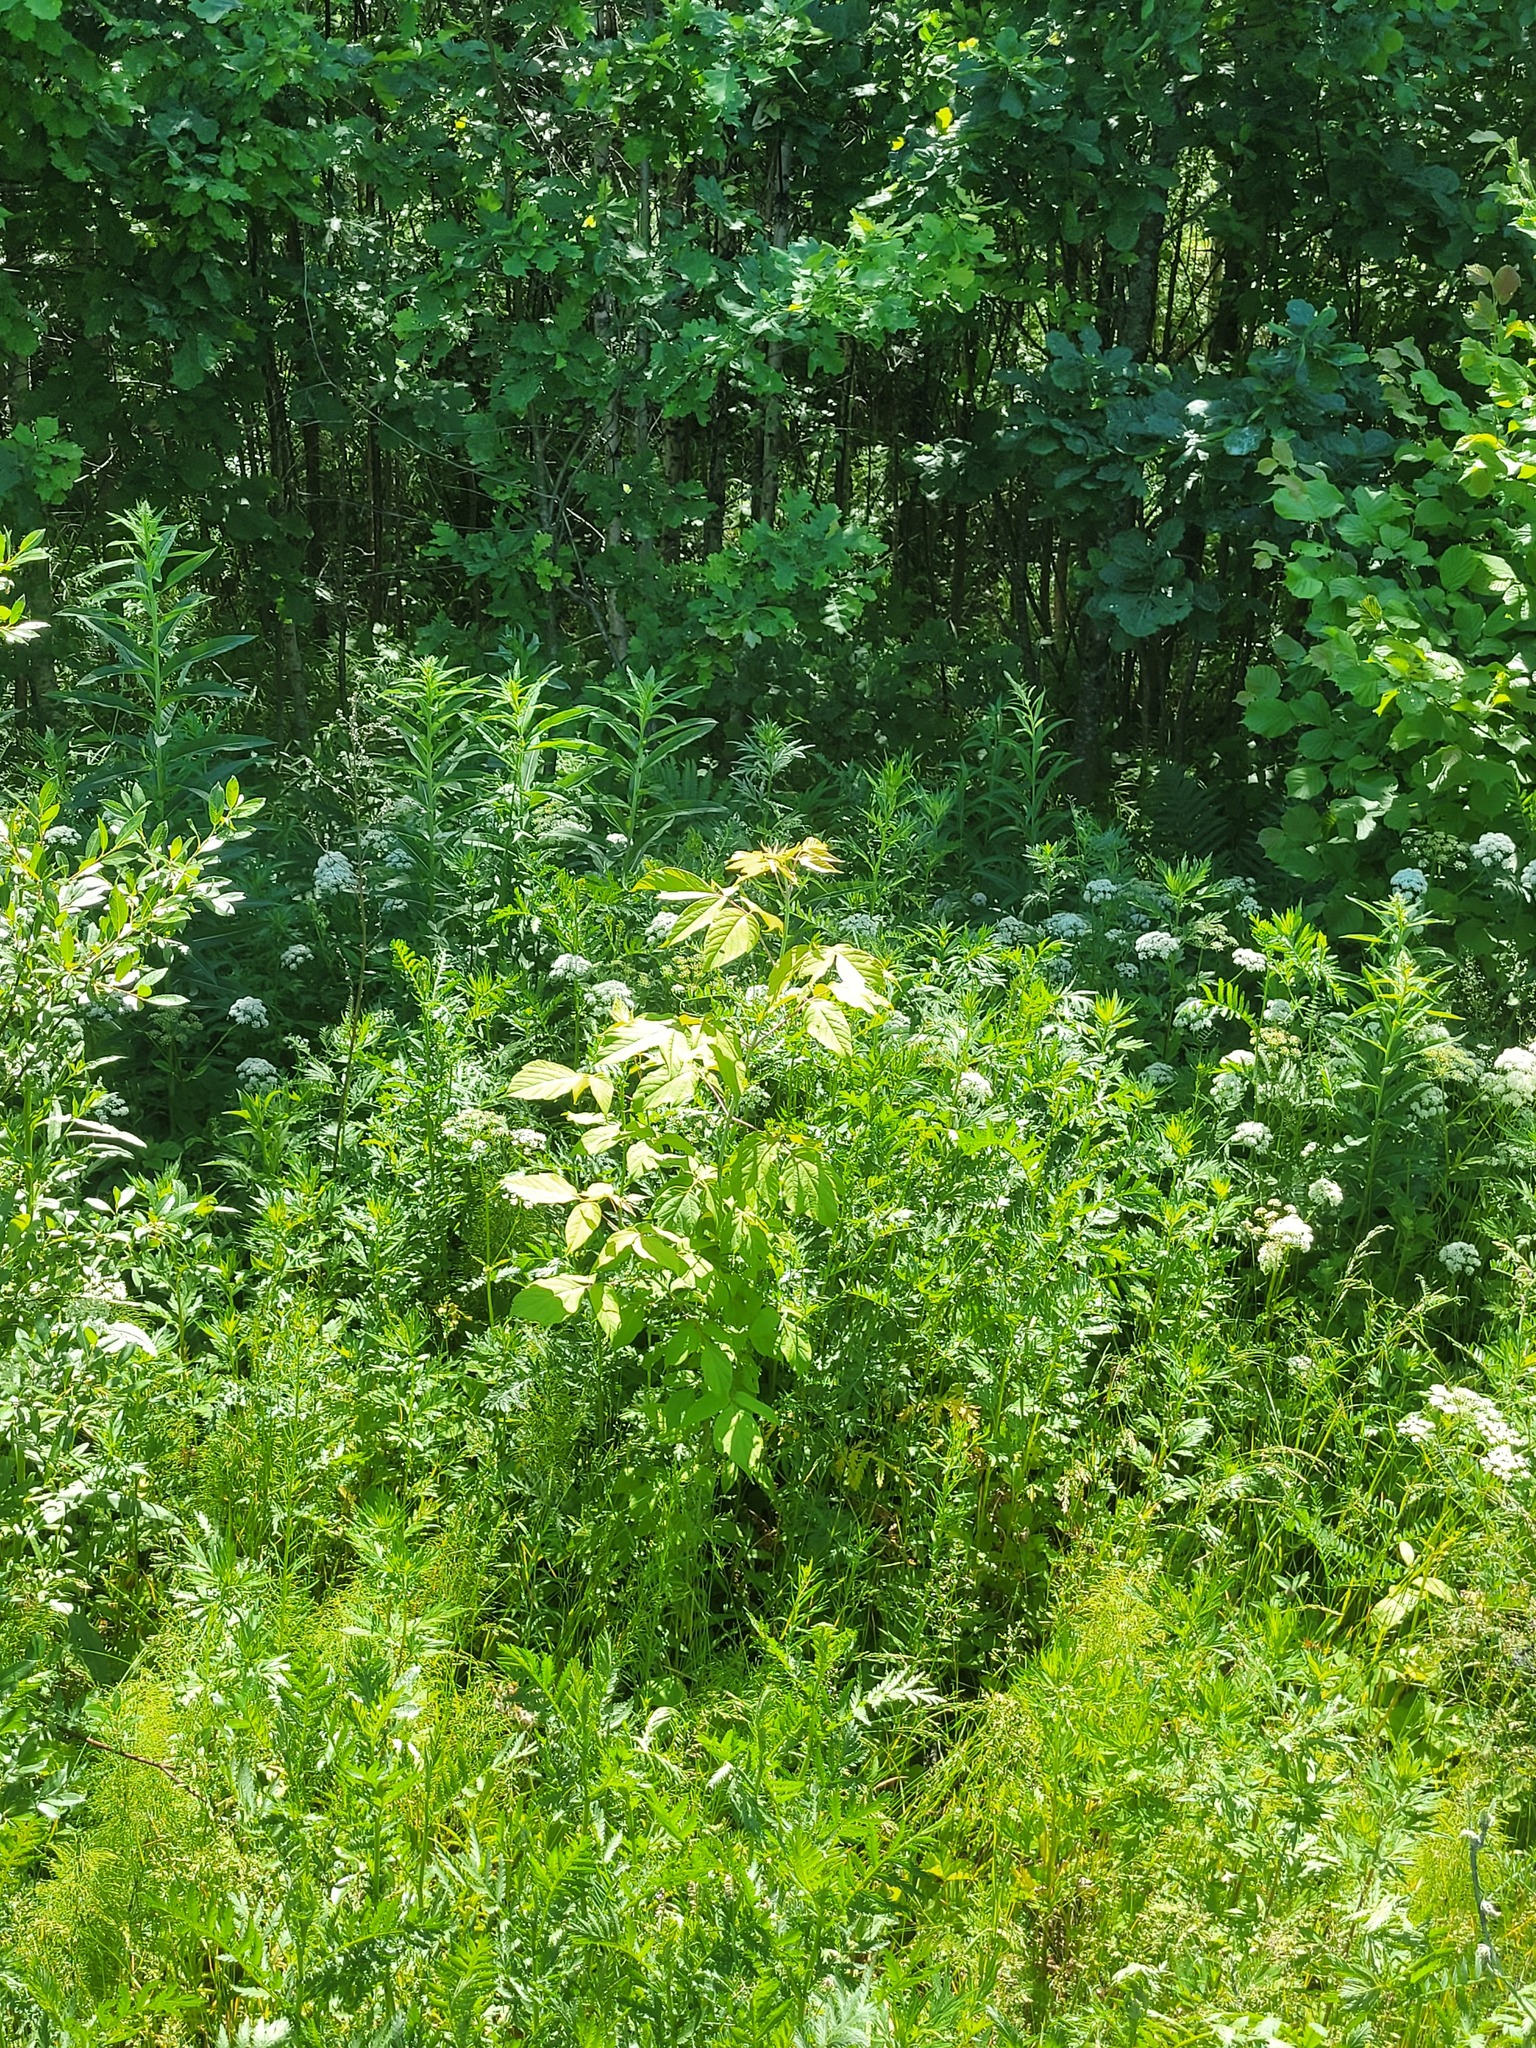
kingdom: Plantae
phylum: Tracheophyta
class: Magnoliopsida
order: Sapindales
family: Sapindaceae
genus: Acer
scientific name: Acer negundo
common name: Ashleaf maple
